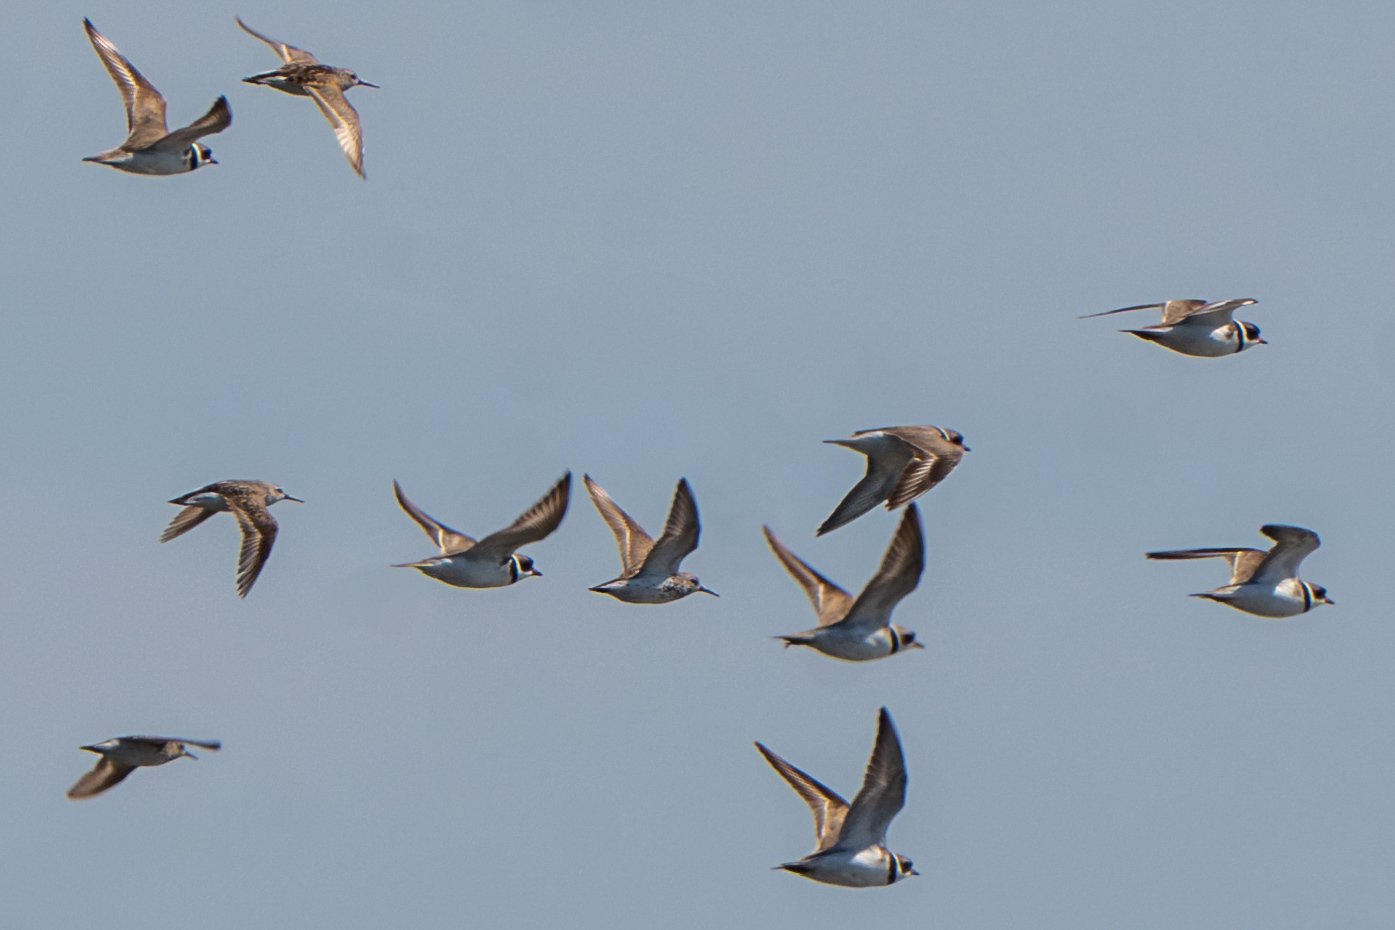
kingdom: Animalia
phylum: Chordata
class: Aves
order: Charadriiformes
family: Charadriidae
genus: Charadrius
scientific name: Charadrius semipalmatus
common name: Semipalmated plover
